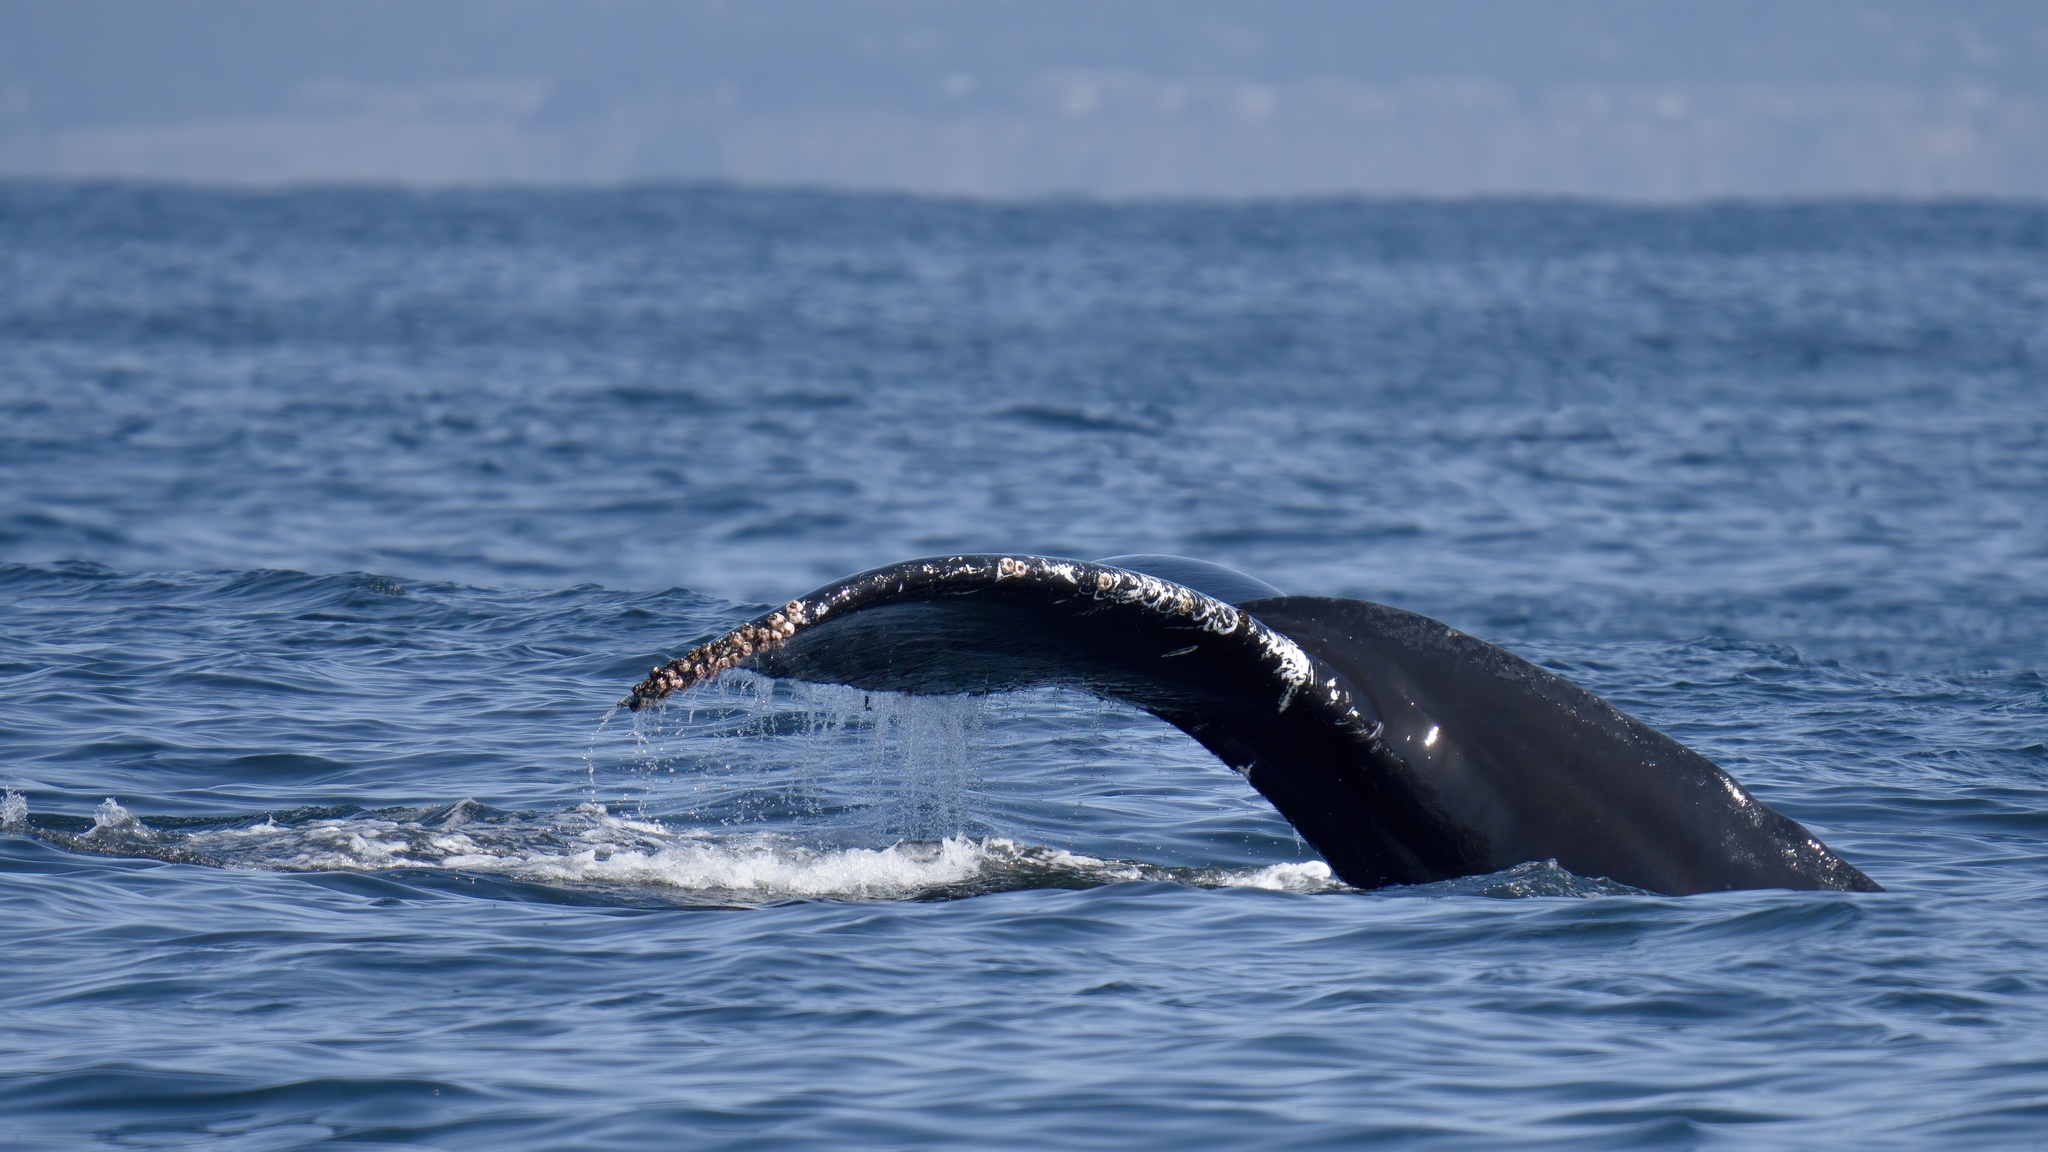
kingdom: Animalia
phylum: Chordata
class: Mammalia
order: Cetacea
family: Balaenopteridae
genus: Megaptera
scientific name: Megaptera novaeangliae
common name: Humpback whale
